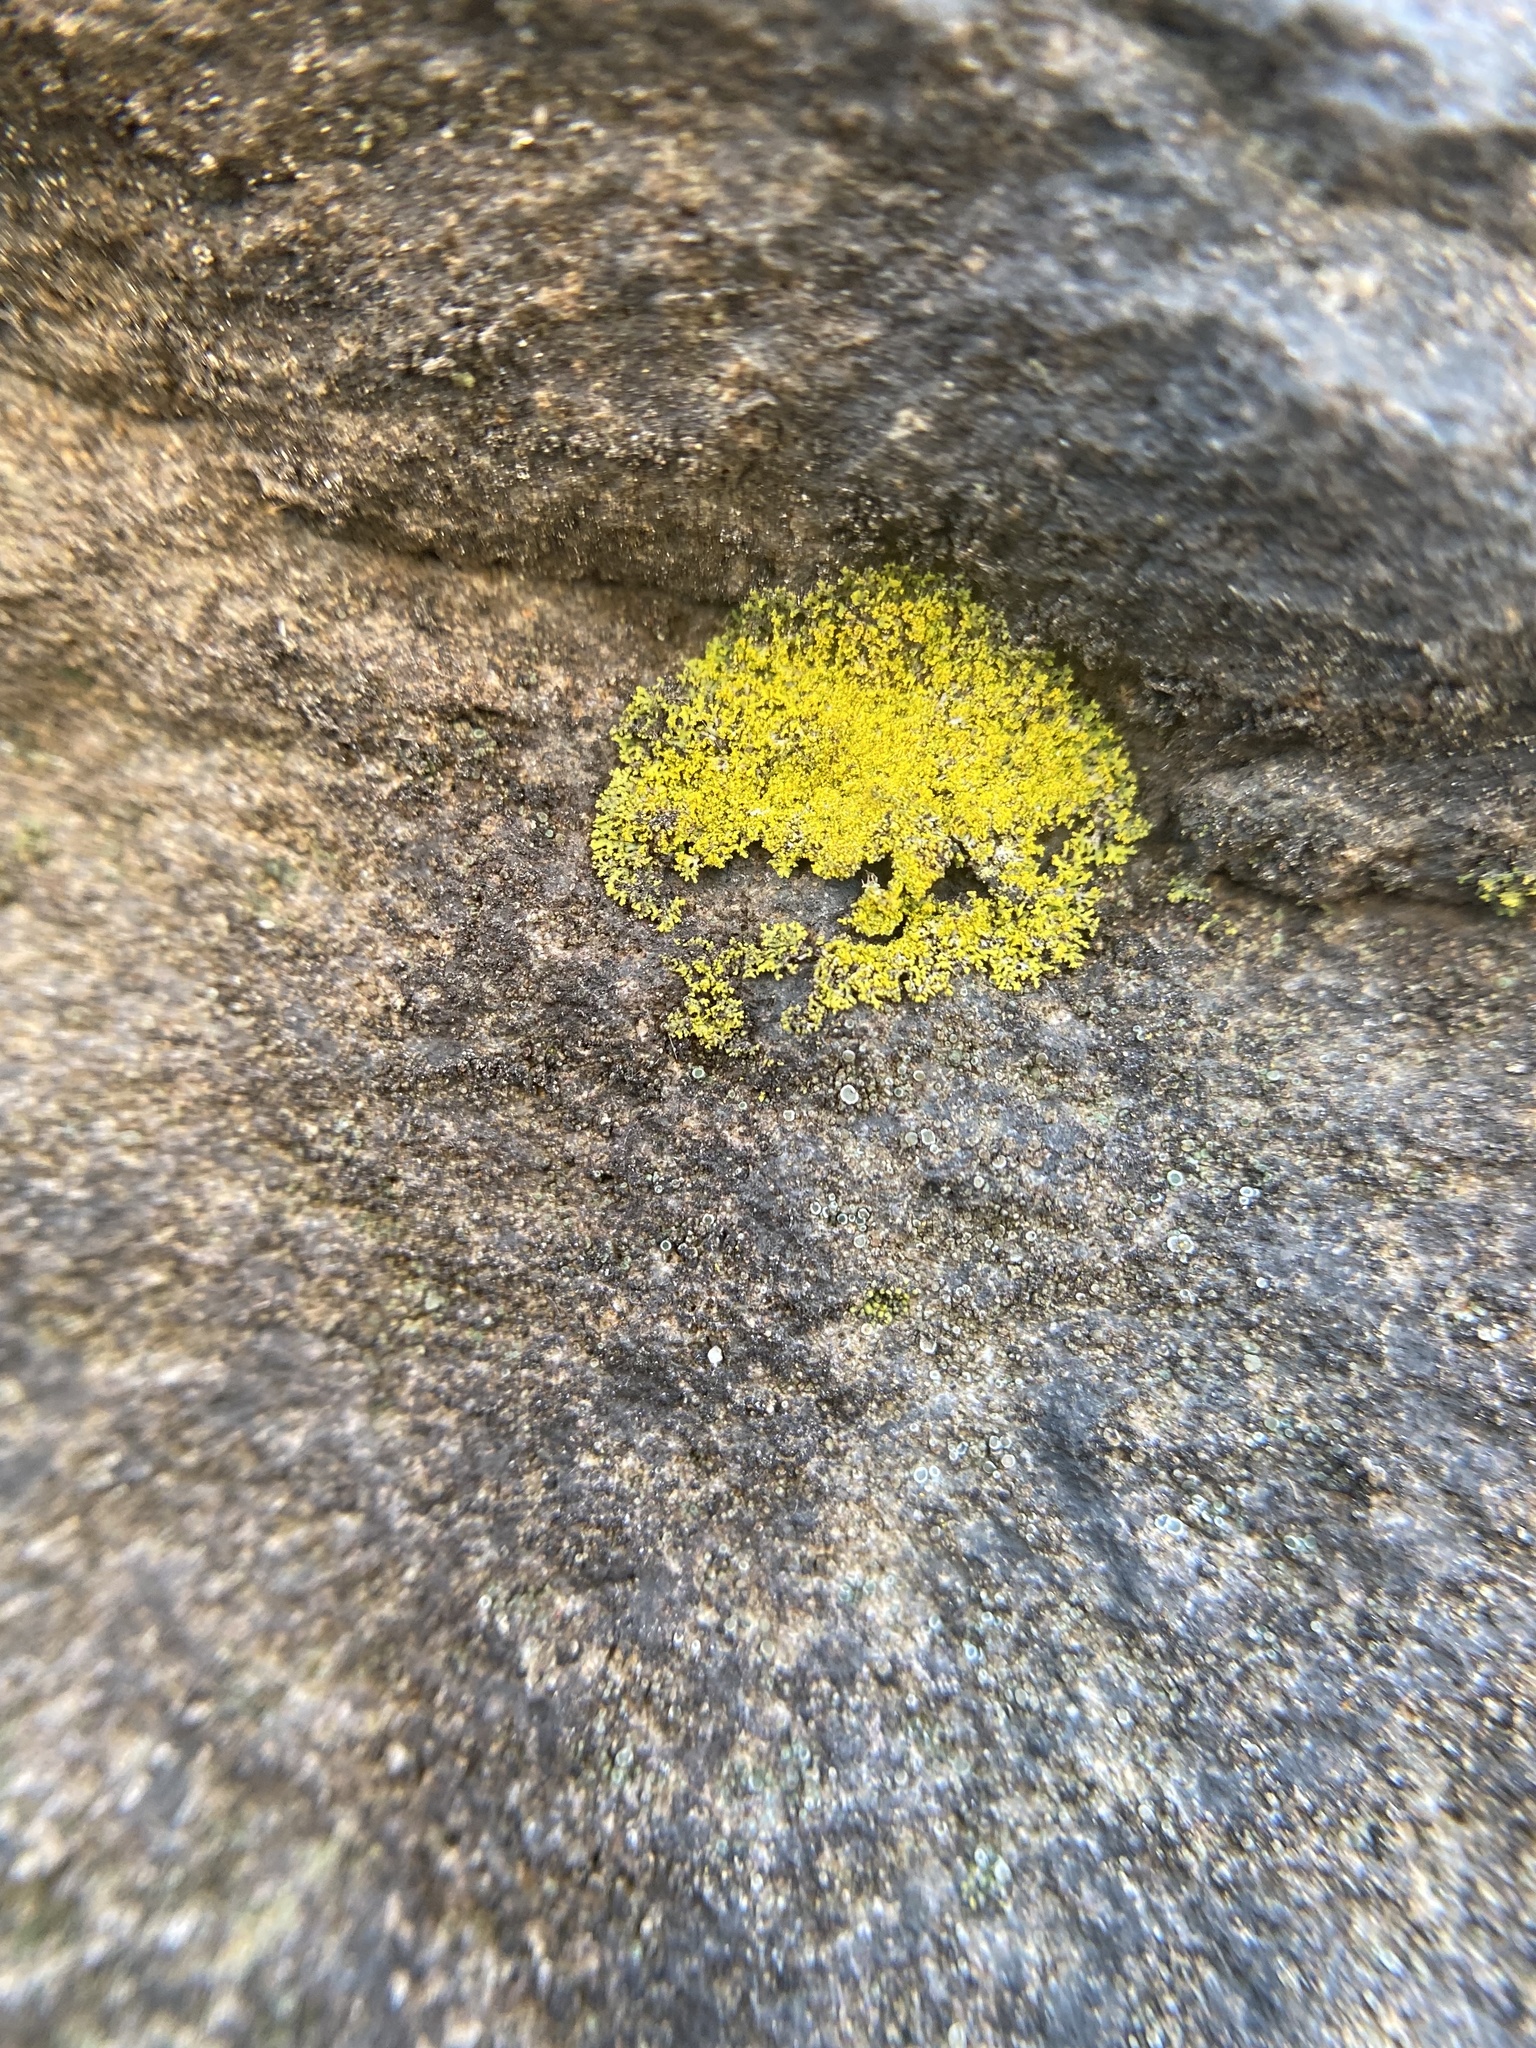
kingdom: Fungi
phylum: Ascomycota
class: Candelariomycetes
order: Candelariales
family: Candelariaceae
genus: Candelaria
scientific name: Candelaria concolor
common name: Candleflame lichen
